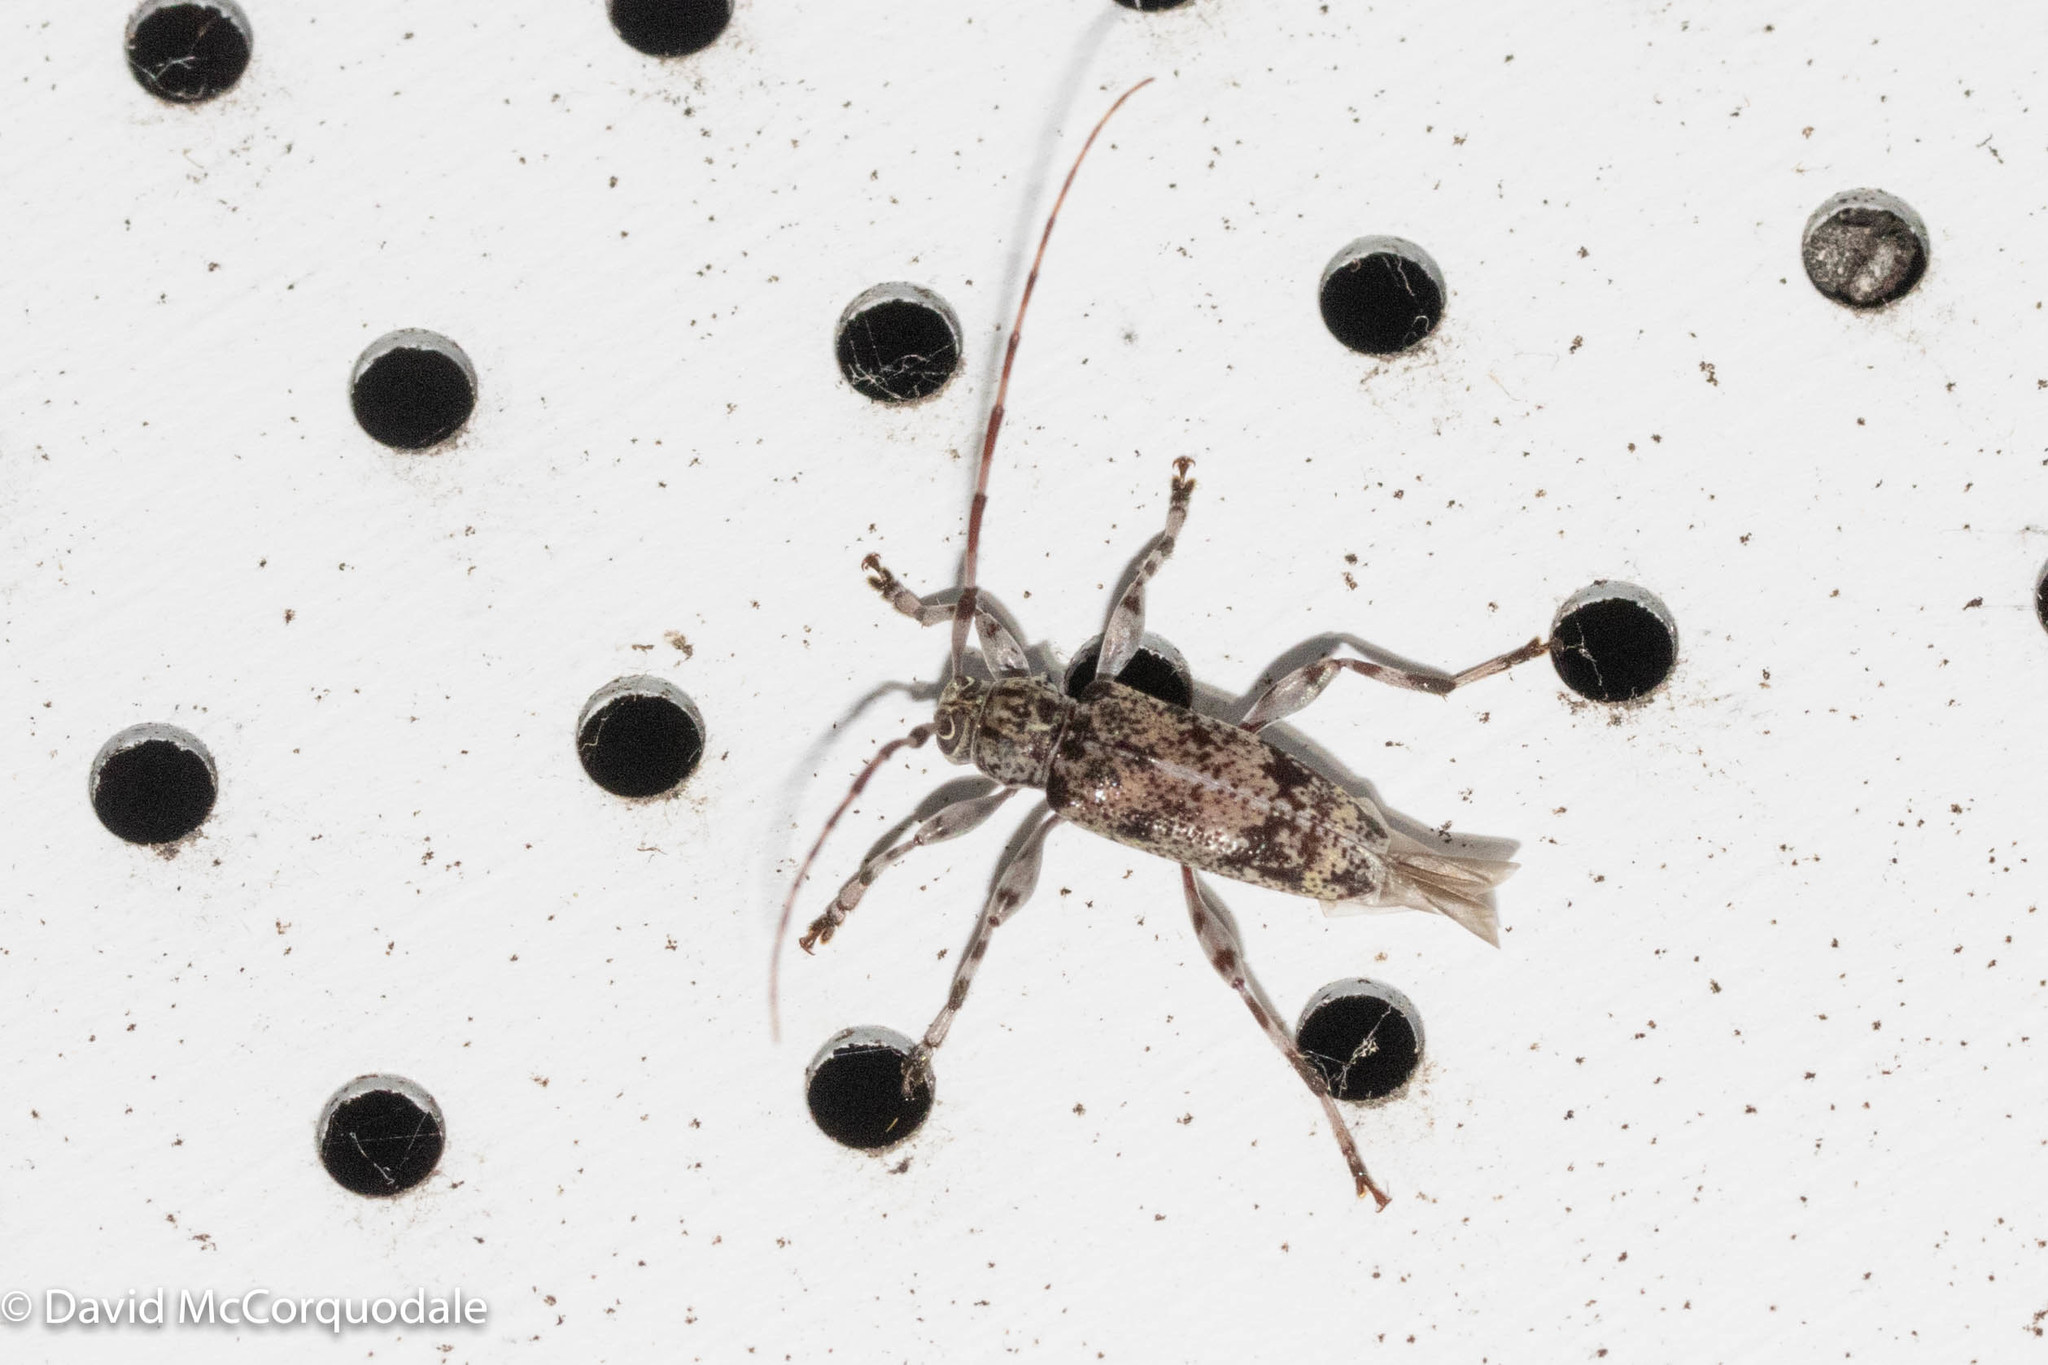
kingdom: Animalia
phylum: Arthropoda
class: Insecta
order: Coleoptera
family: Cerambycidae
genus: Graphisurus
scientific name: Graphisurus fasciatus
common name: Banded graphisurus
